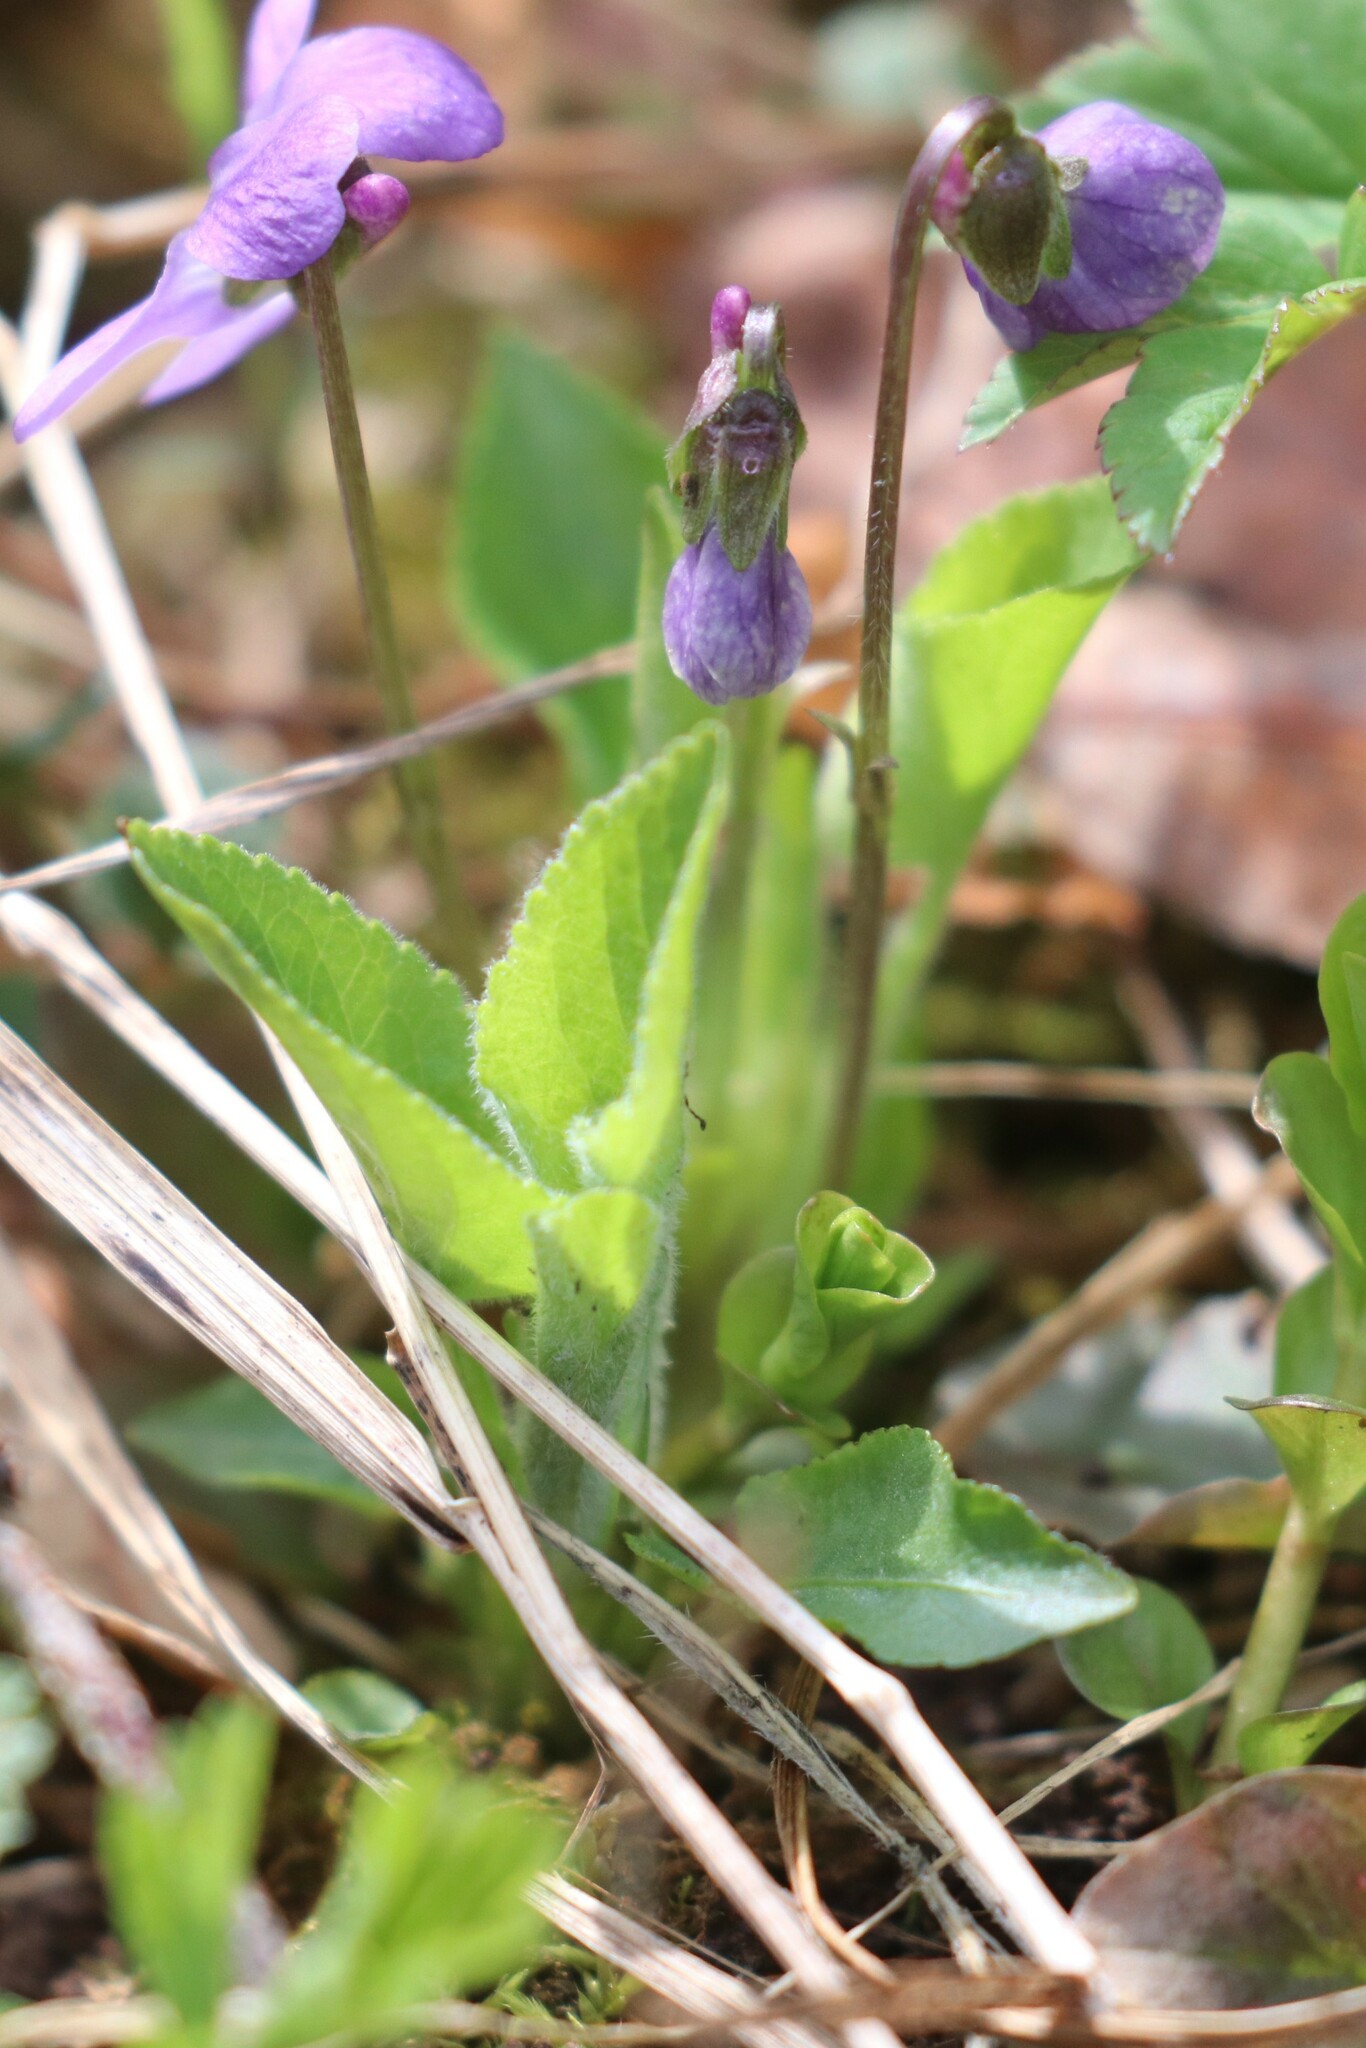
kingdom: Plantae
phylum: Tracheophyta
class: Magnoliopsida
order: Malpighiales
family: Violaceae
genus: Viola
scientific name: Viola hirta
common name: Hairy violet
